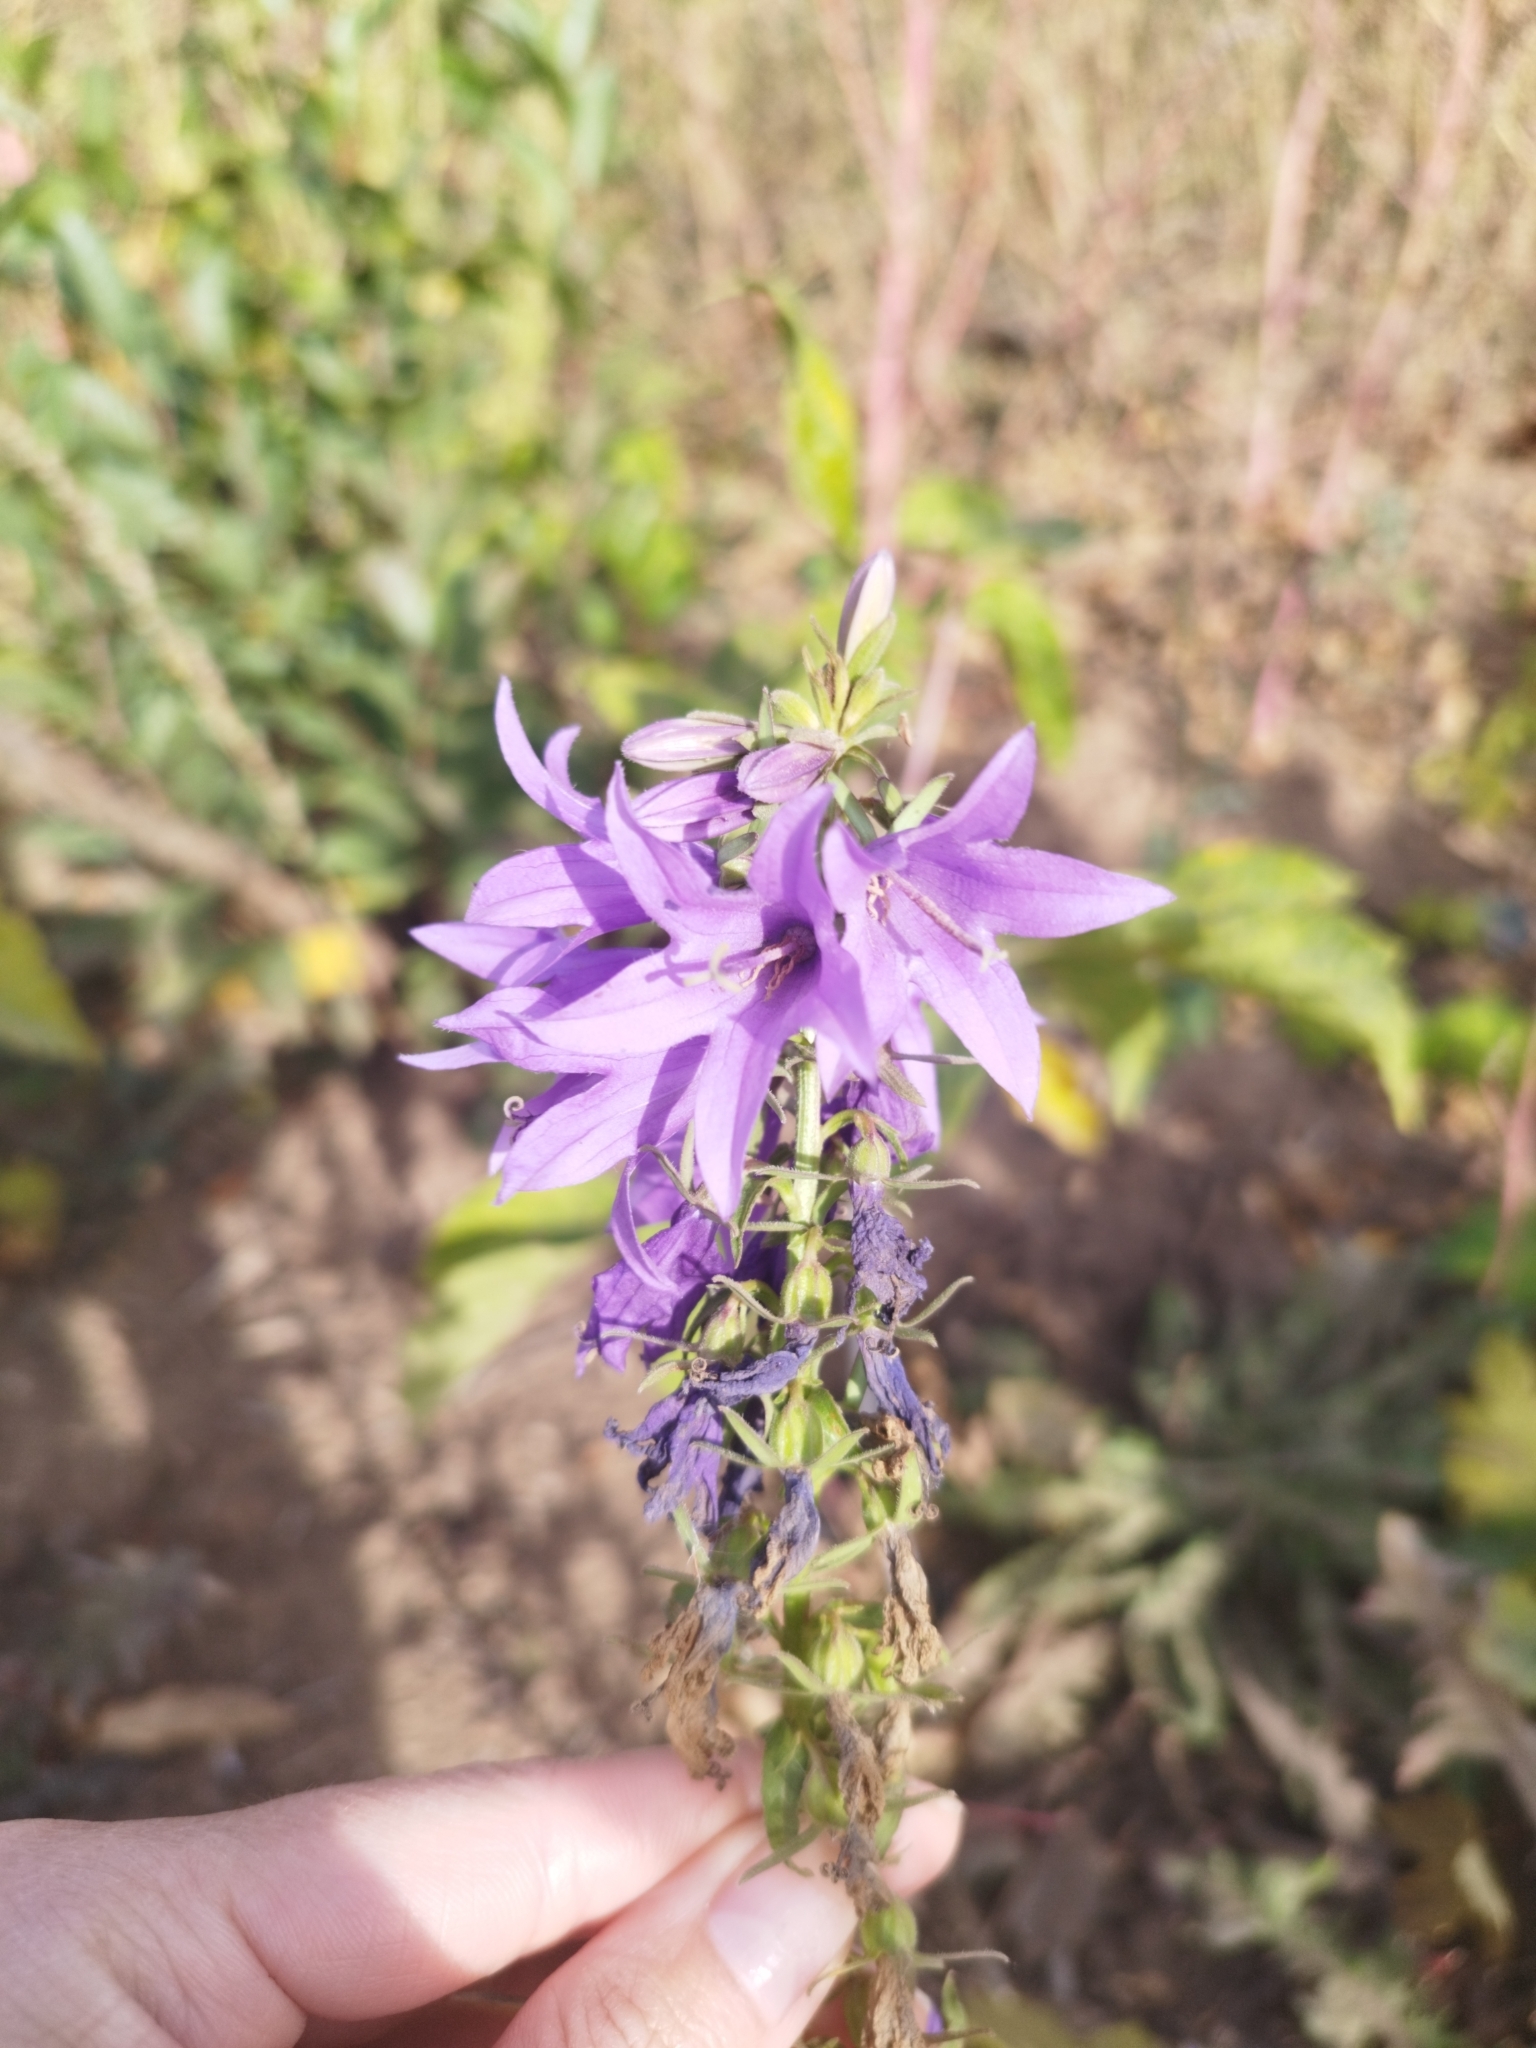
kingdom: Plantae
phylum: Tracheophyta
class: Magnoliopsida
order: Asterales
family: Campanulaceae
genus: Campanula
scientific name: Campanula rapunculoides
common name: Creeping bellflower
